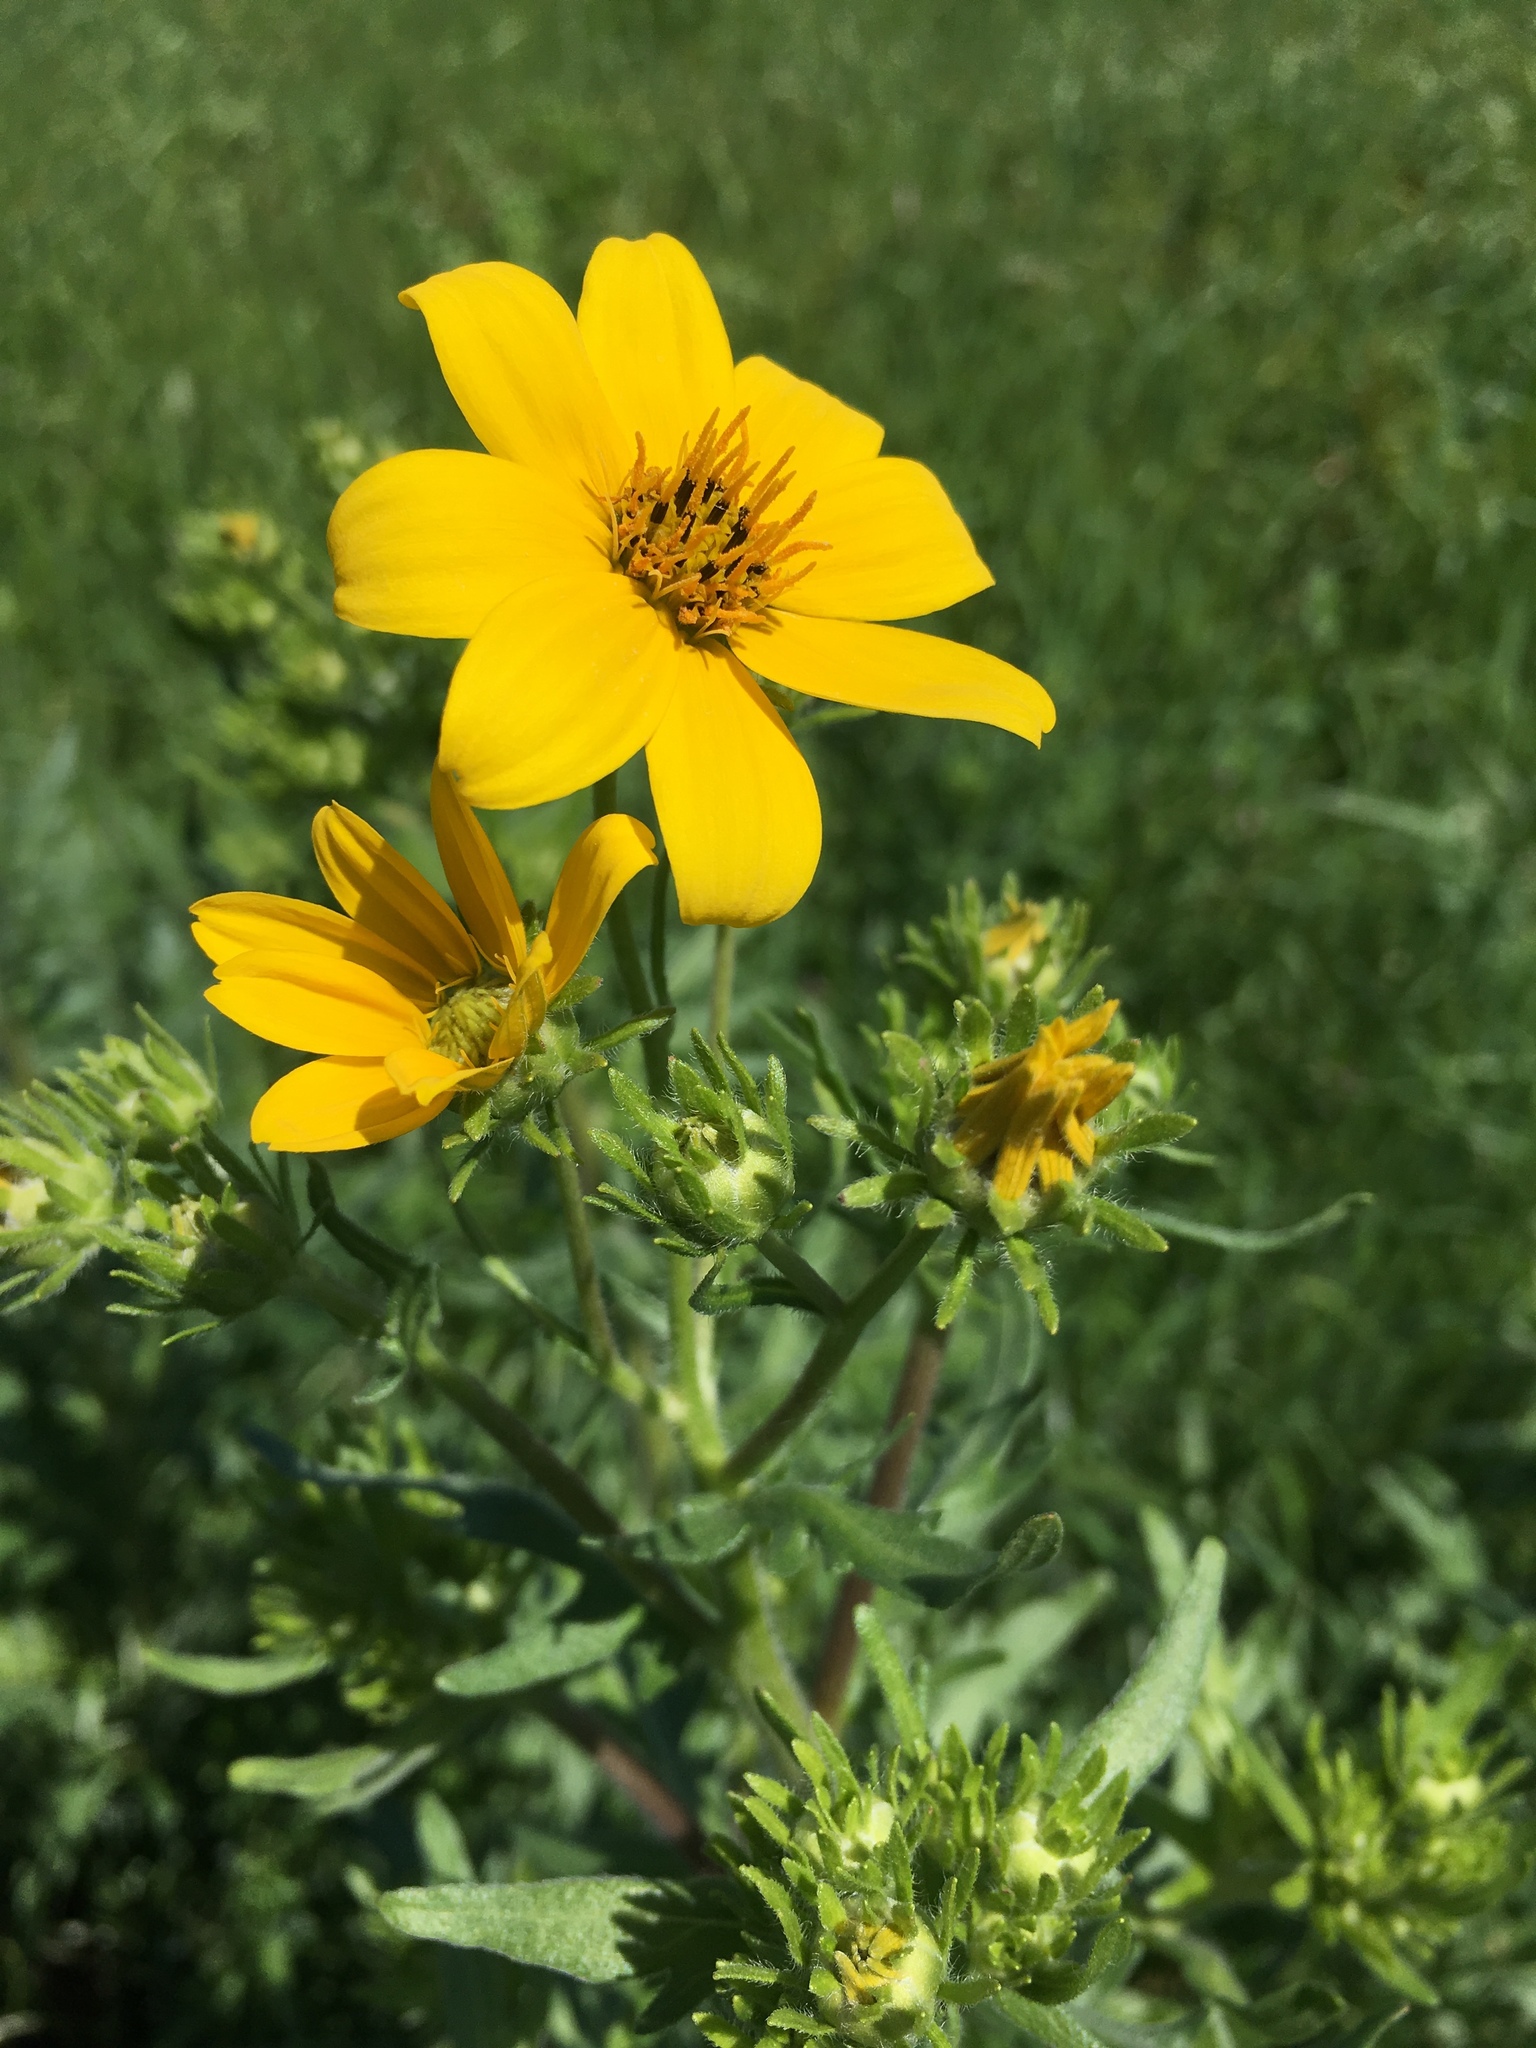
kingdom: Plantae
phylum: Tracheophyta
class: Magnoliopsida
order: Asterales
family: Asteraceae
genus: Engelmannia
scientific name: Engelmannia peristenia
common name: Engelmann's daisy
